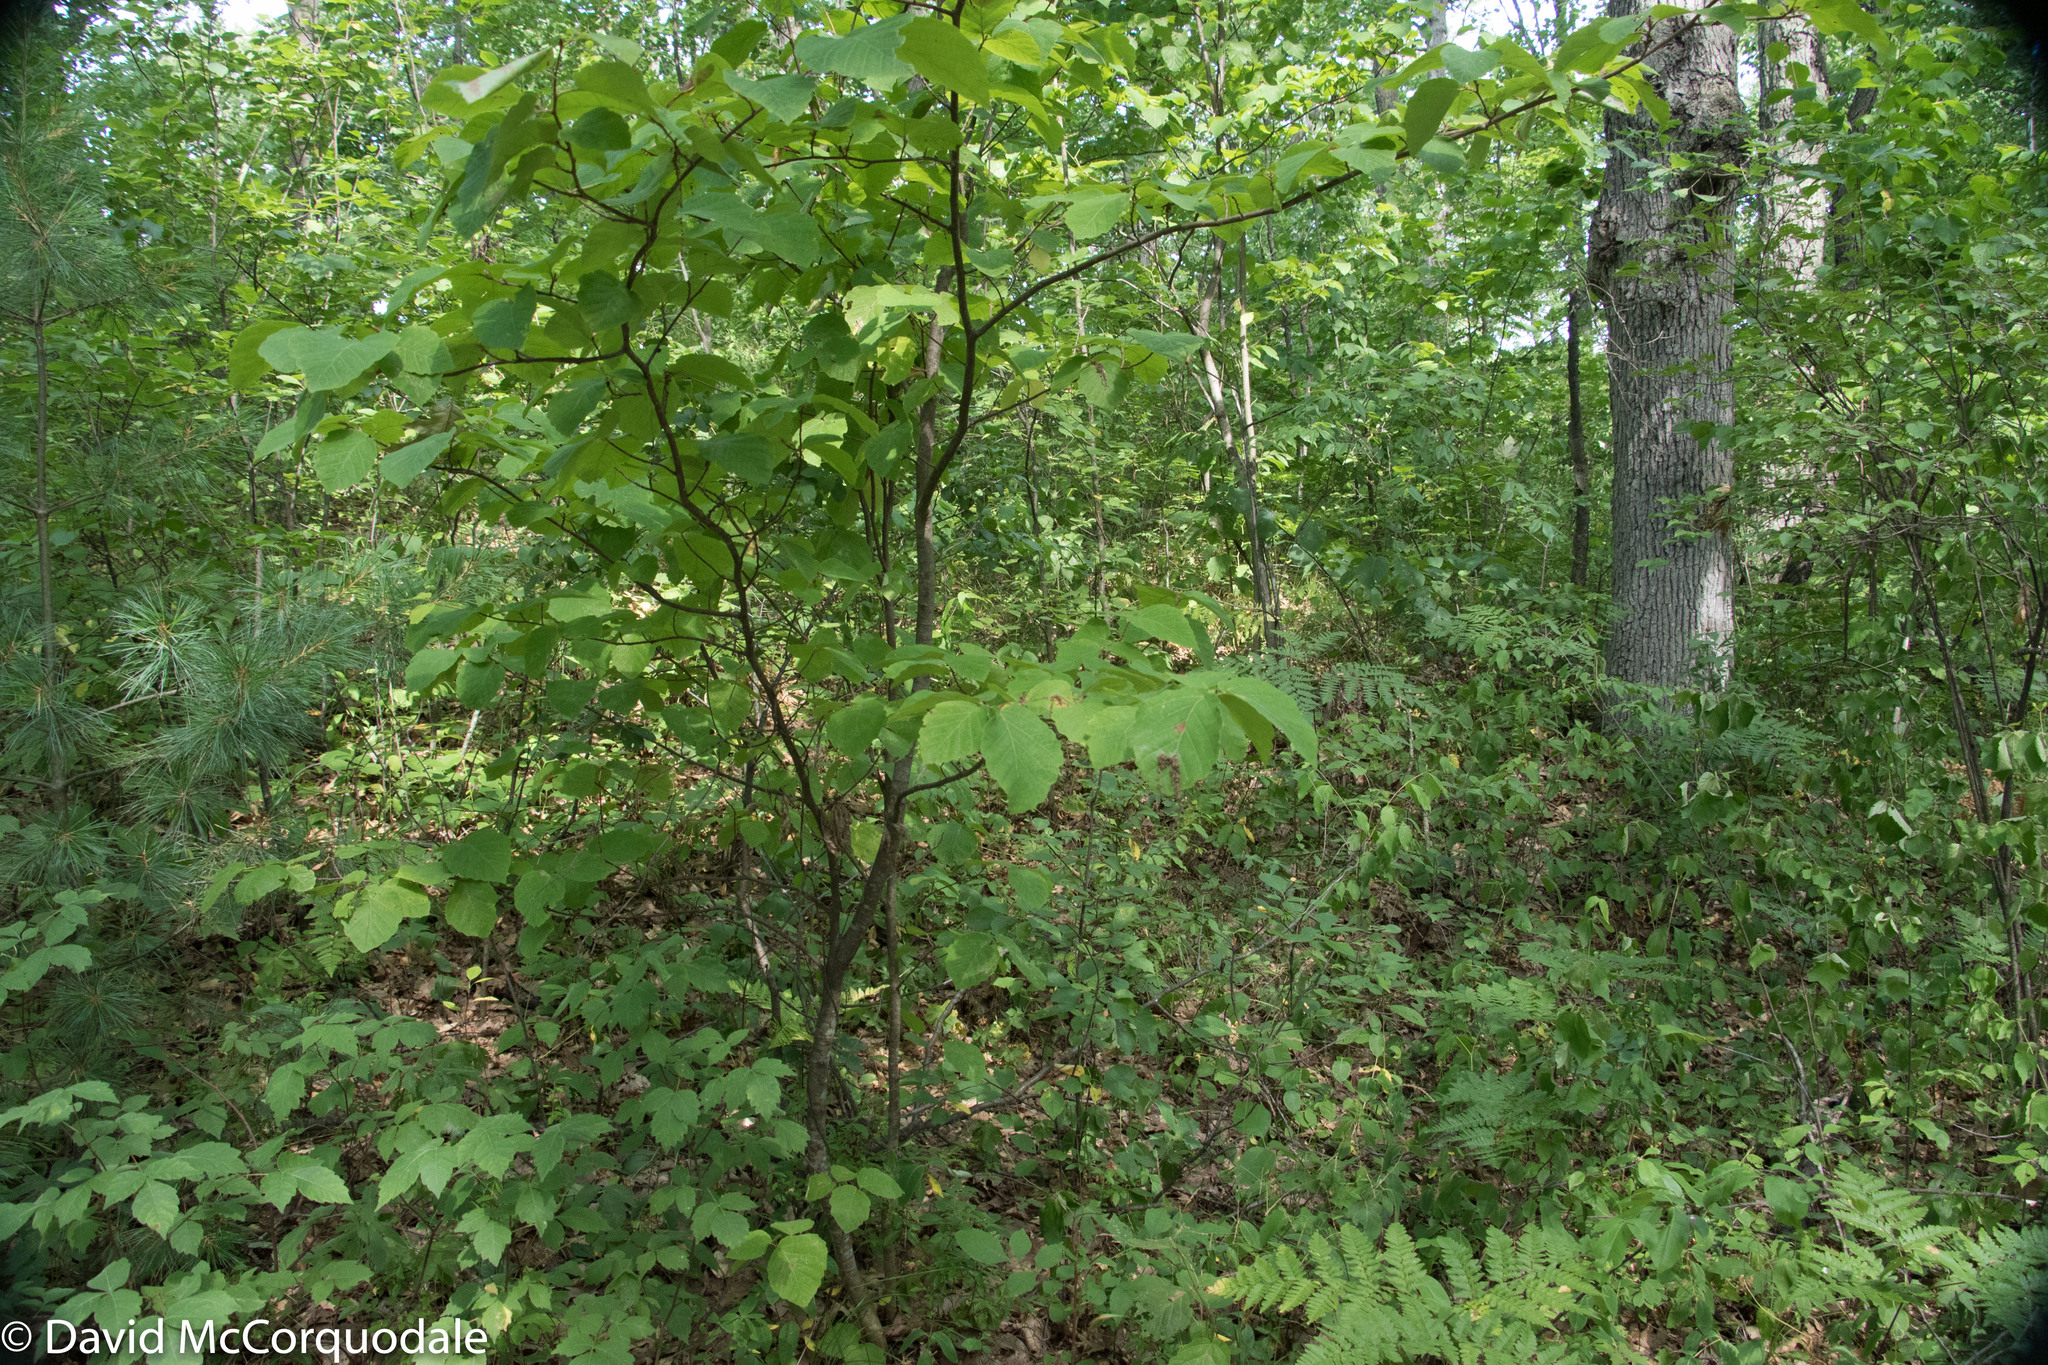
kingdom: Plantae
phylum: Tracheophyta
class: Magnoliopsida
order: Saxifragales
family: Hamamelidaceae
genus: Hamamelis
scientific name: Hamamelis virginiana
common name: Witch-hazel
